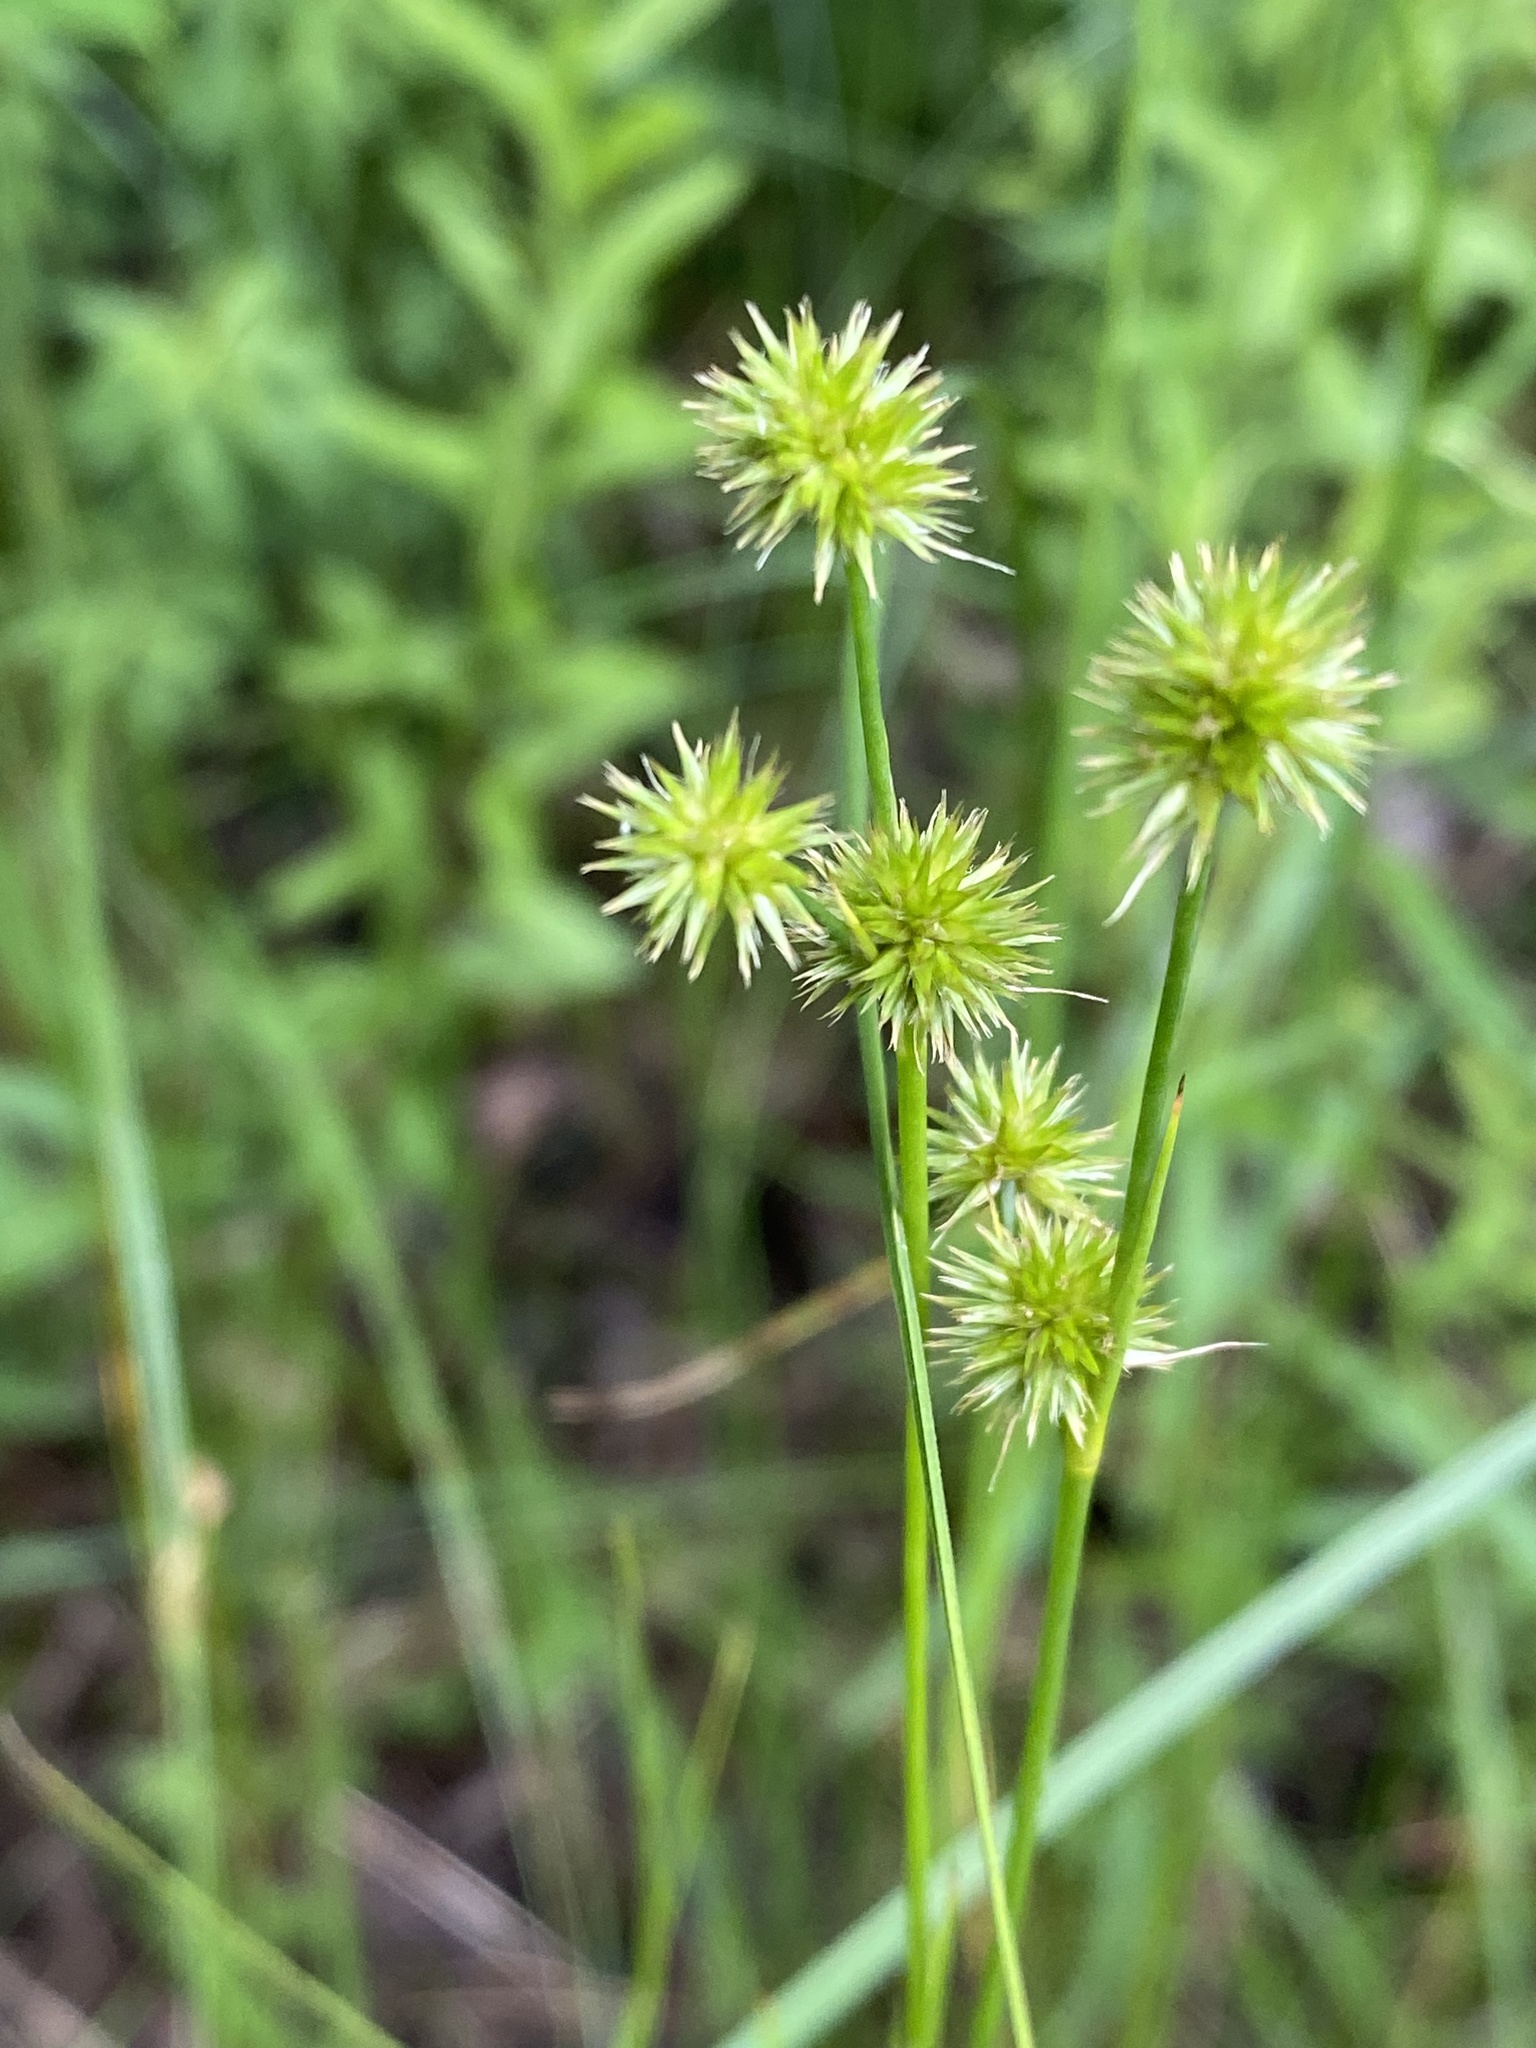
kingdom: Plantae
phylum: Tracheophyta
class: Liliopsida
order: Poales
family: Juncaceae
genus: Juncus
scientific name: Juncus torreyi
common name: Torrey's rush
